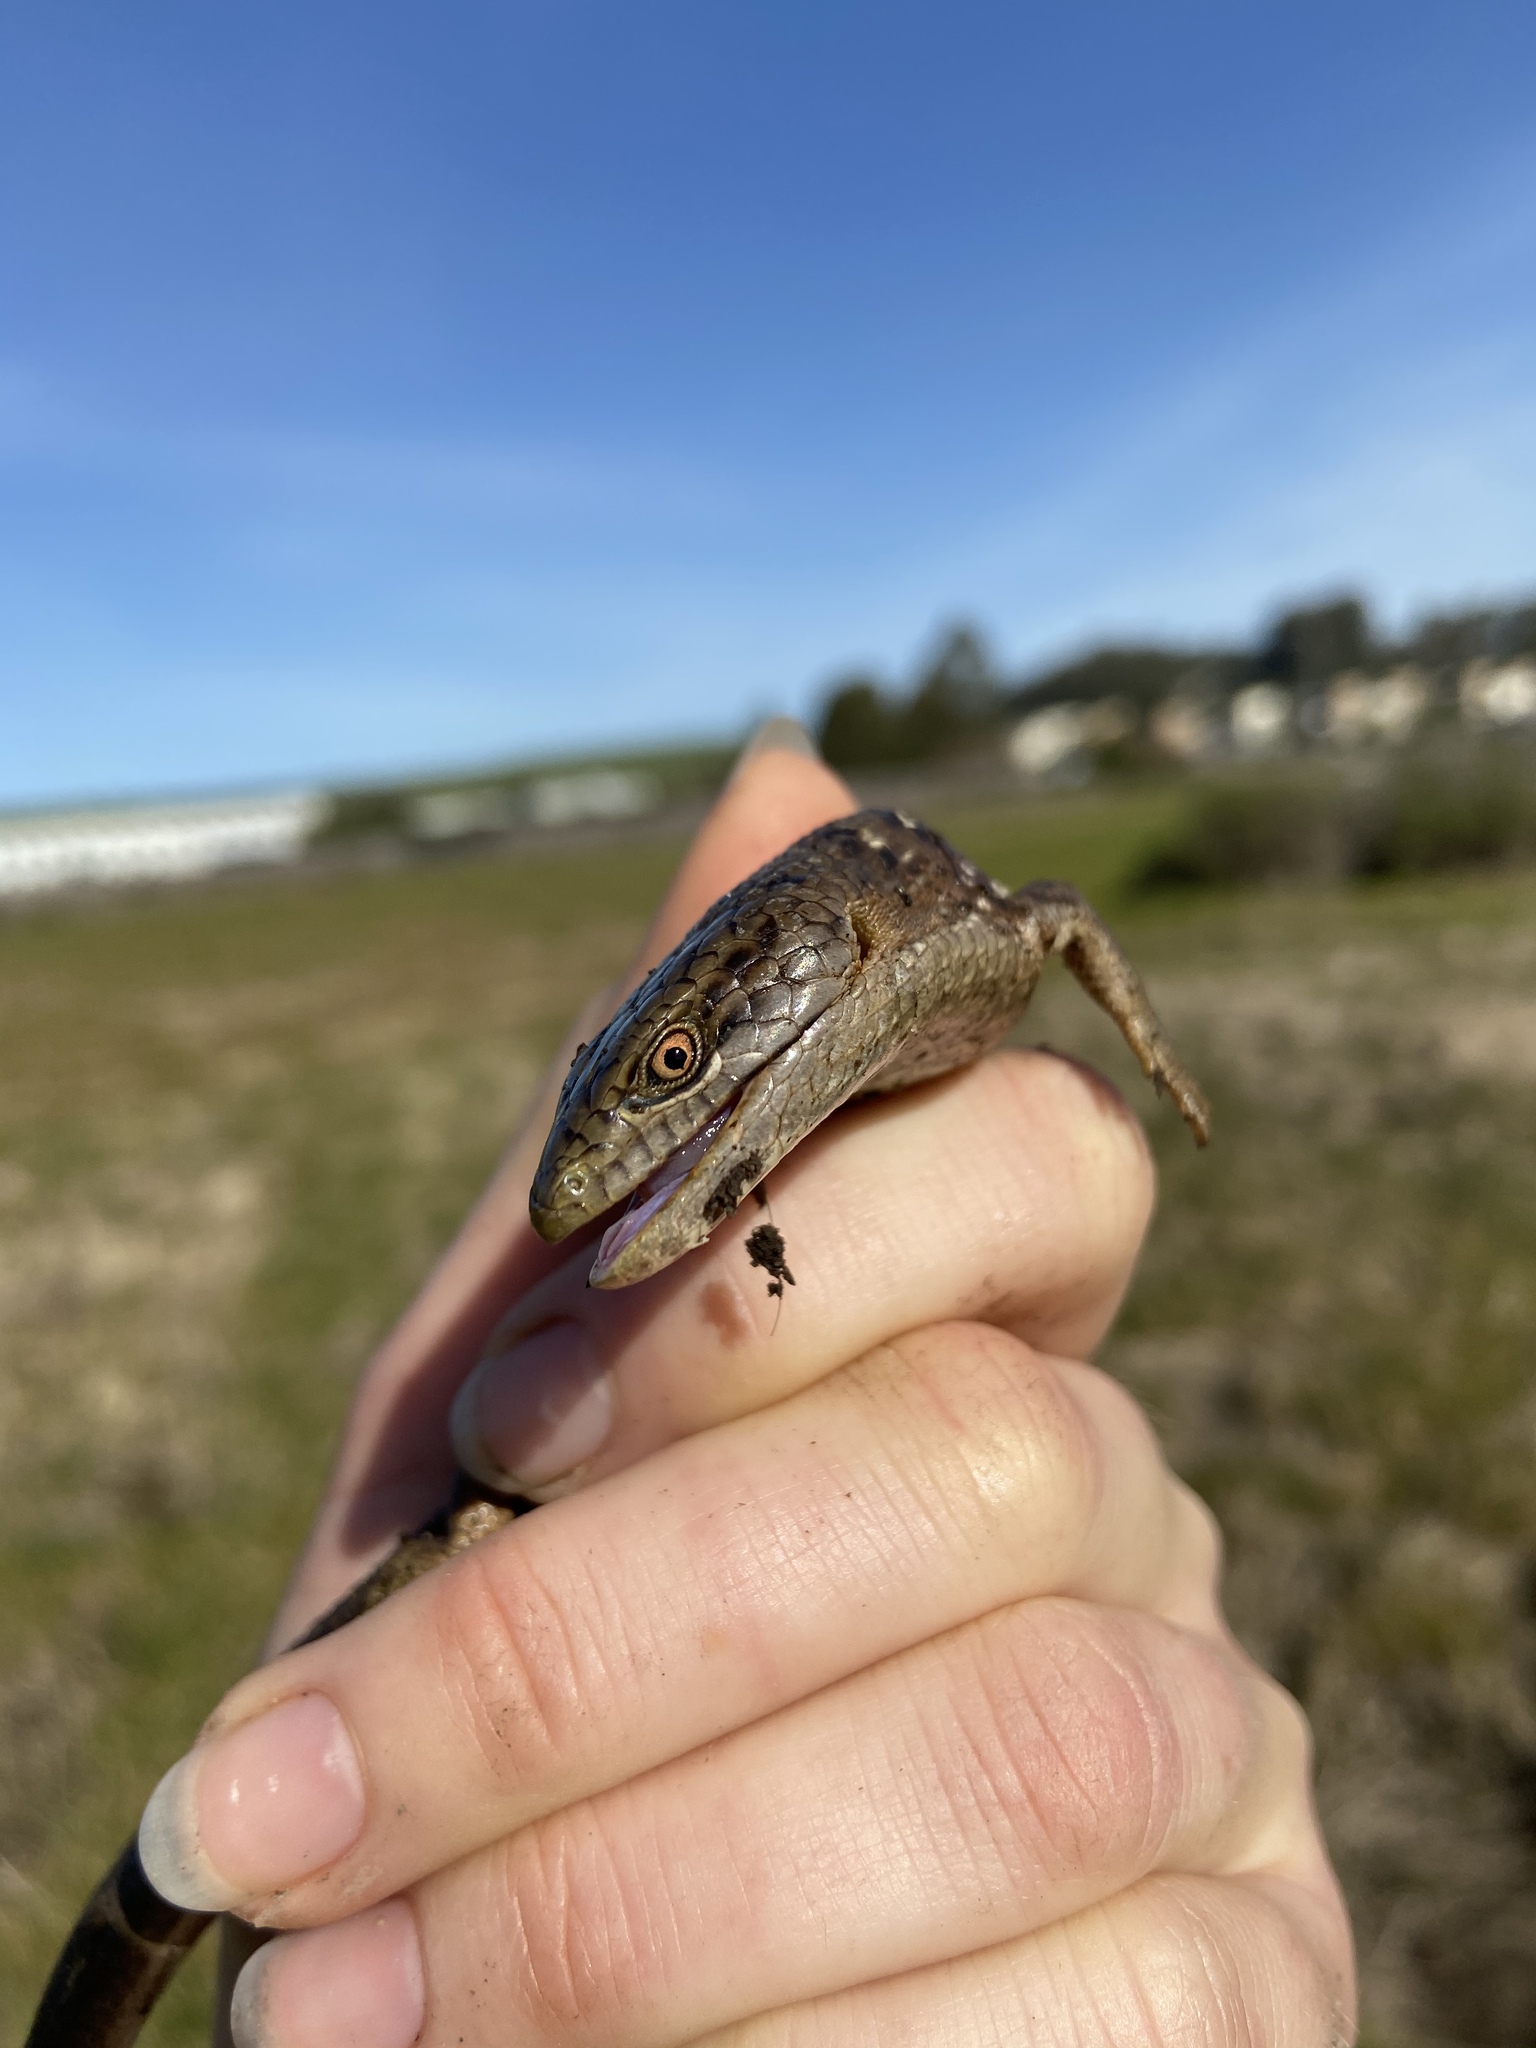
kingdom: Animalia
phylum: Chordata
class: Squamata
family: Anguidae
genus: Elgaria
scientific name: Elgaria multicarinata
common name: Southern alligator lizard
